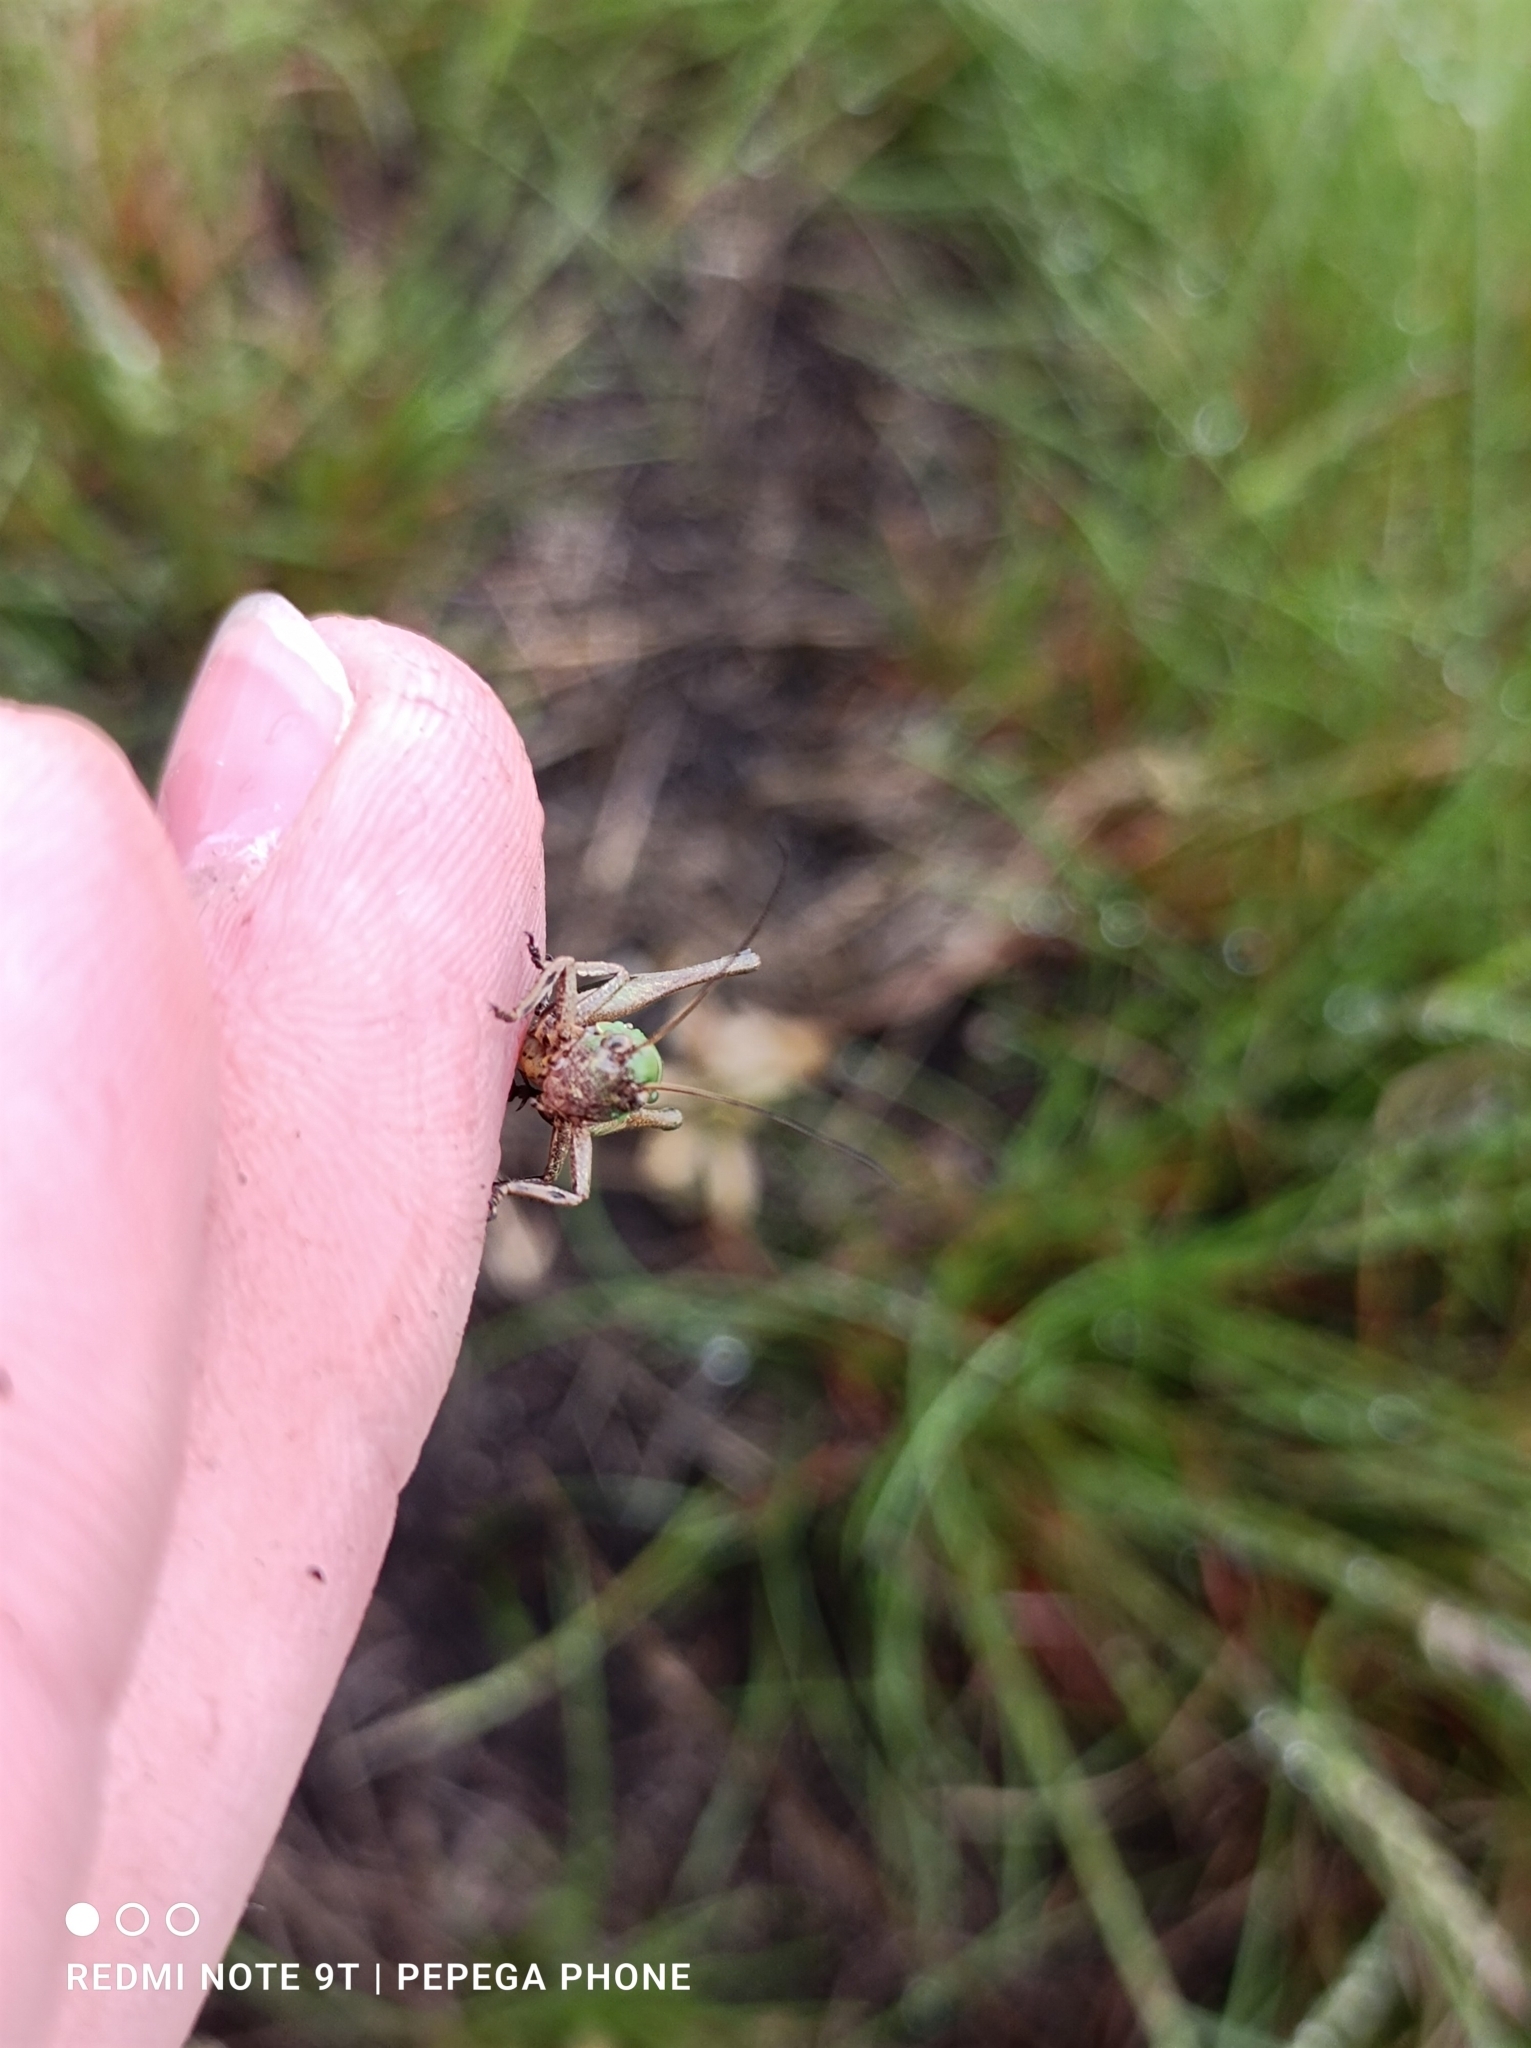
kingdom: Animalia
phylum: Arthropoda
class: Insecta
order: Orthoptera
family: Tettigoniidae
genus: Decticus
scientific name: Decticus verrucivorus
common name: Wart-biter
